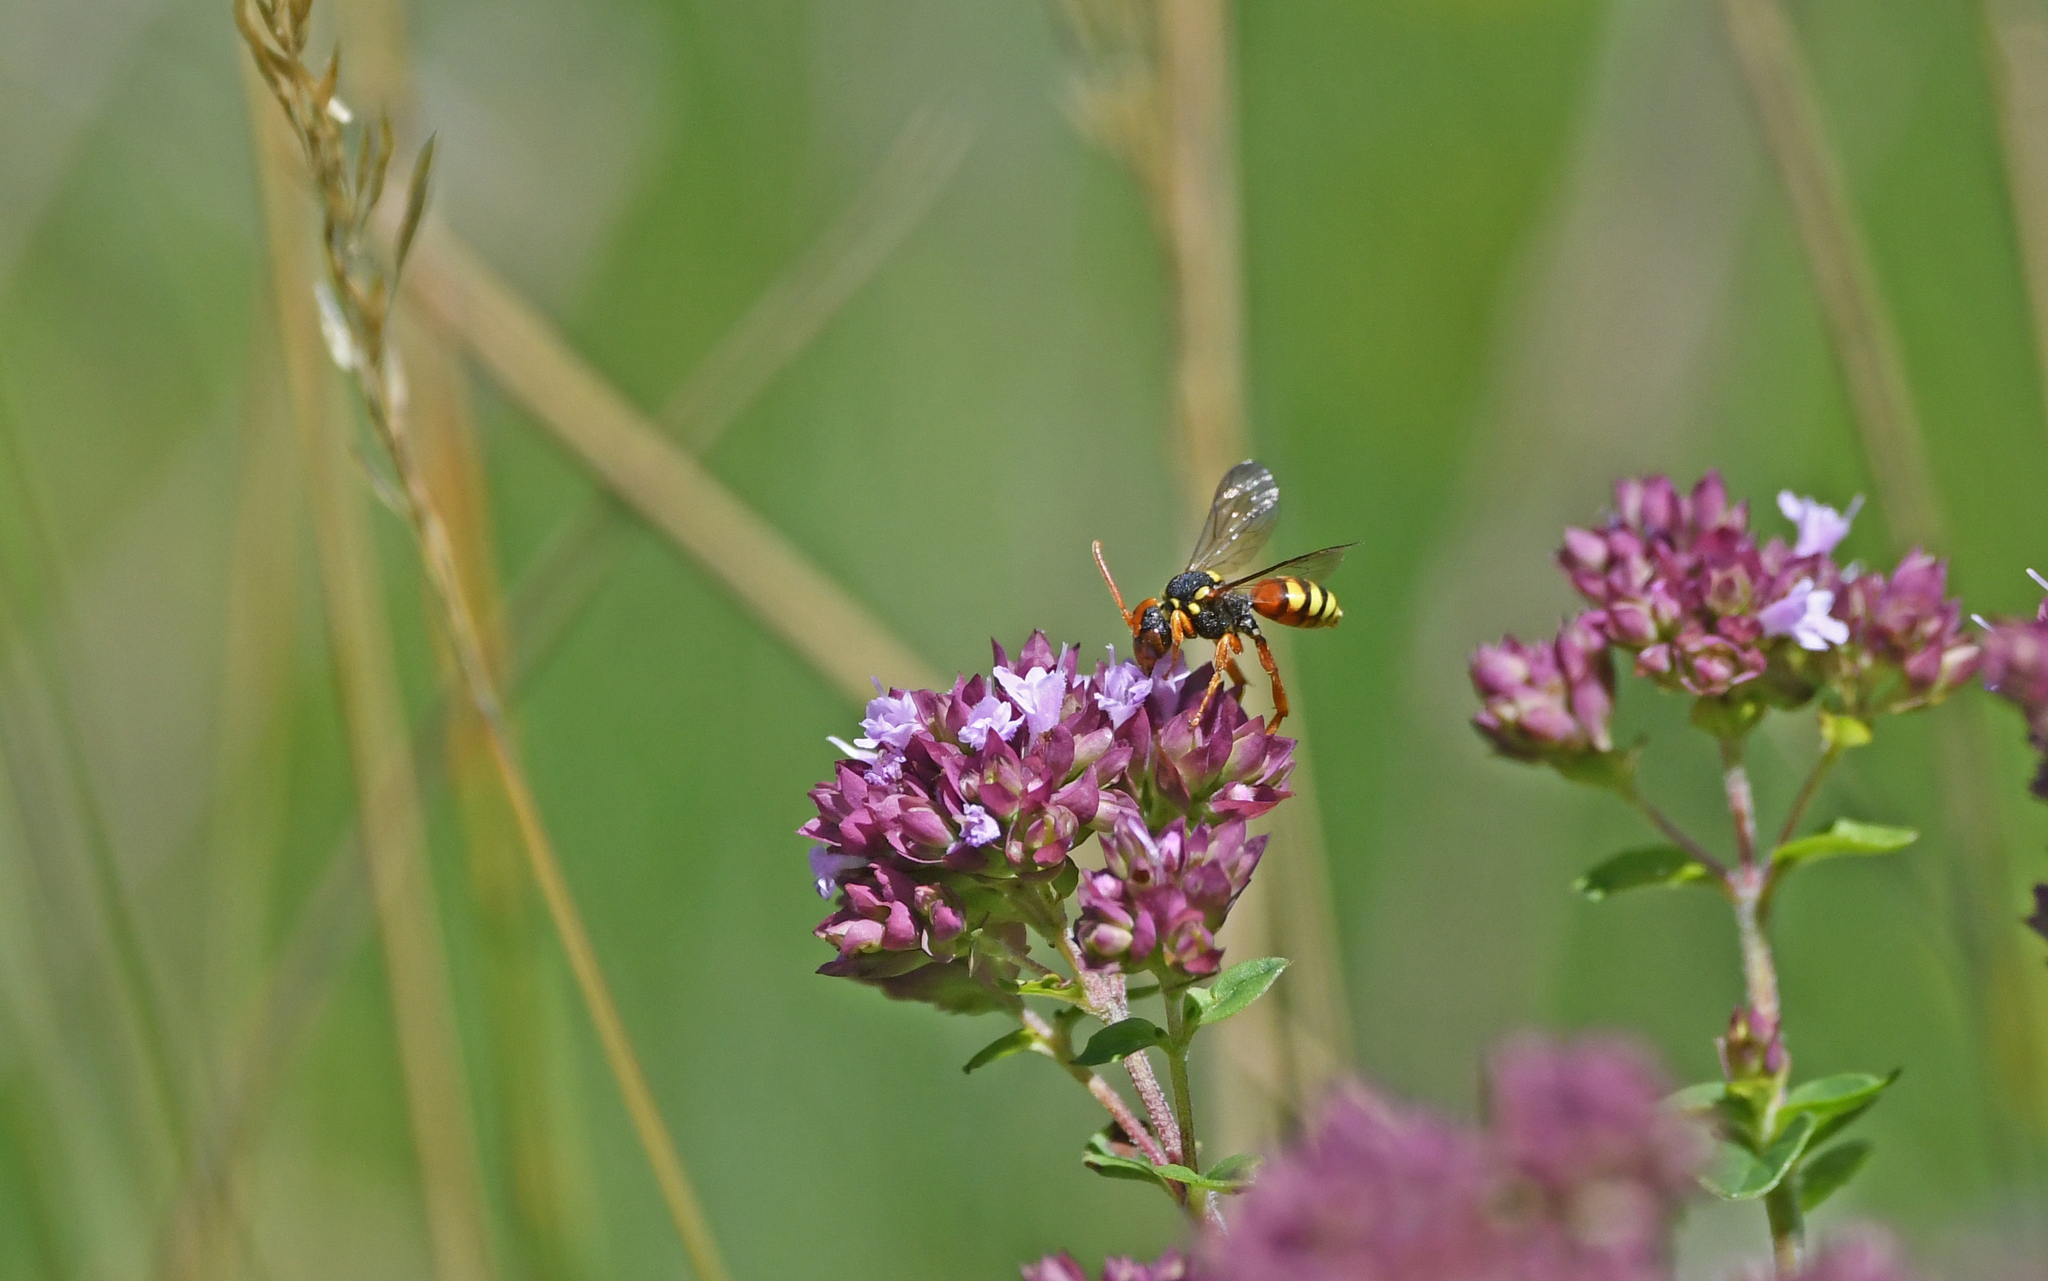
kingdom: Animalia
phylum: Arthropoda
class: Insecta
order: Hymenoptera
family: Apidae
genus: Nomada
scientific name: Nomada fucata
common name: Painted nomad bee
